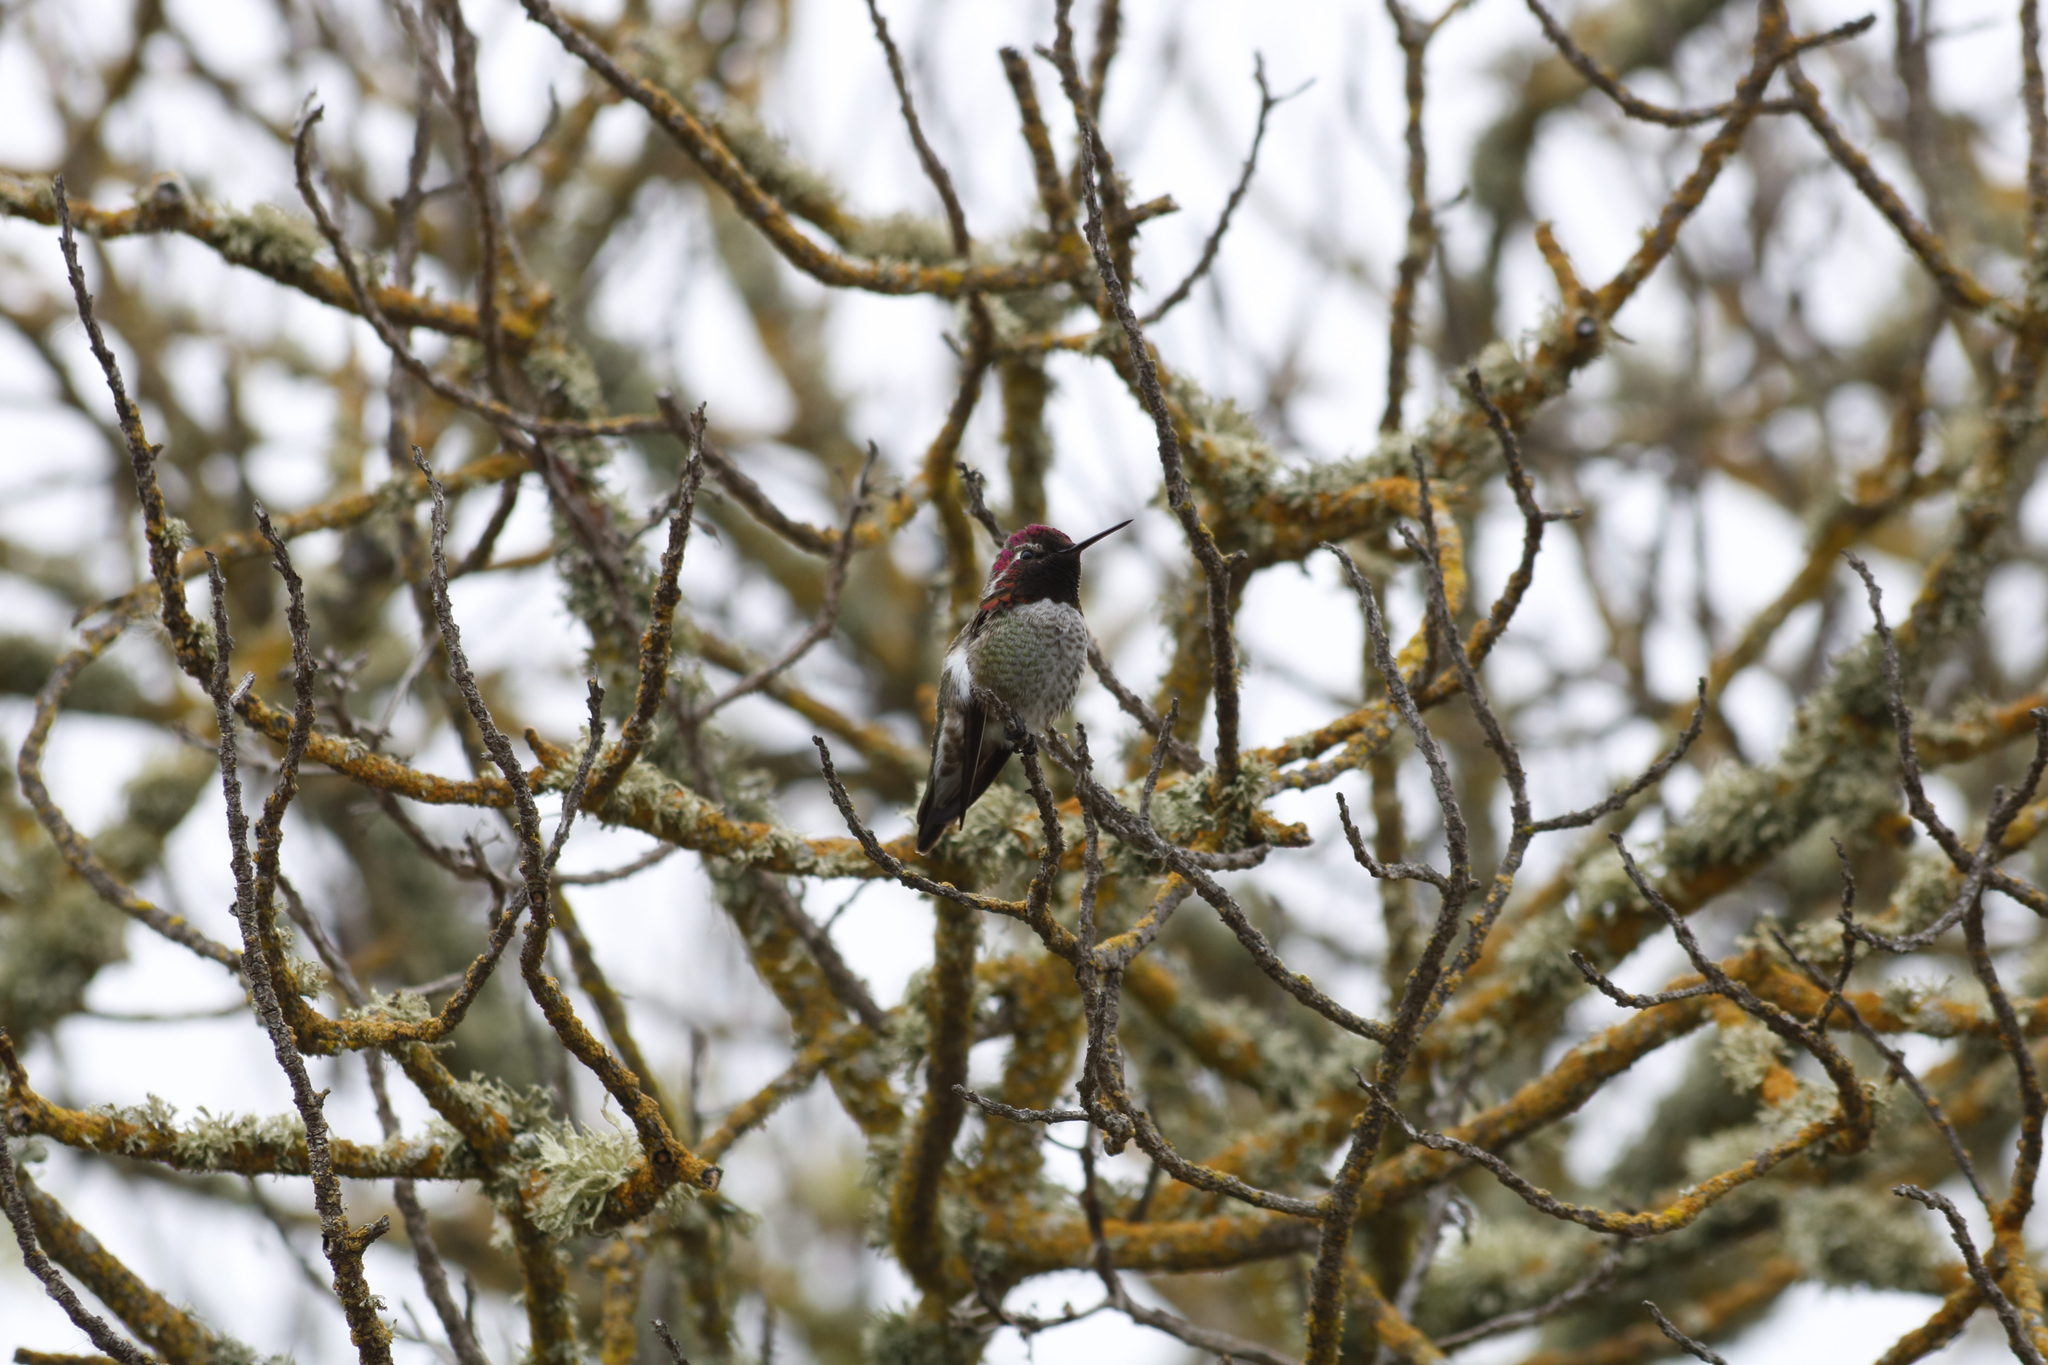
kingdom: Animalia
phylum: Chordata
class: Aves
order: Apodiformes
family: Trochilidae
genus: Calypte
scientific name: Calypte anna
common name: Anna's hummingbird
